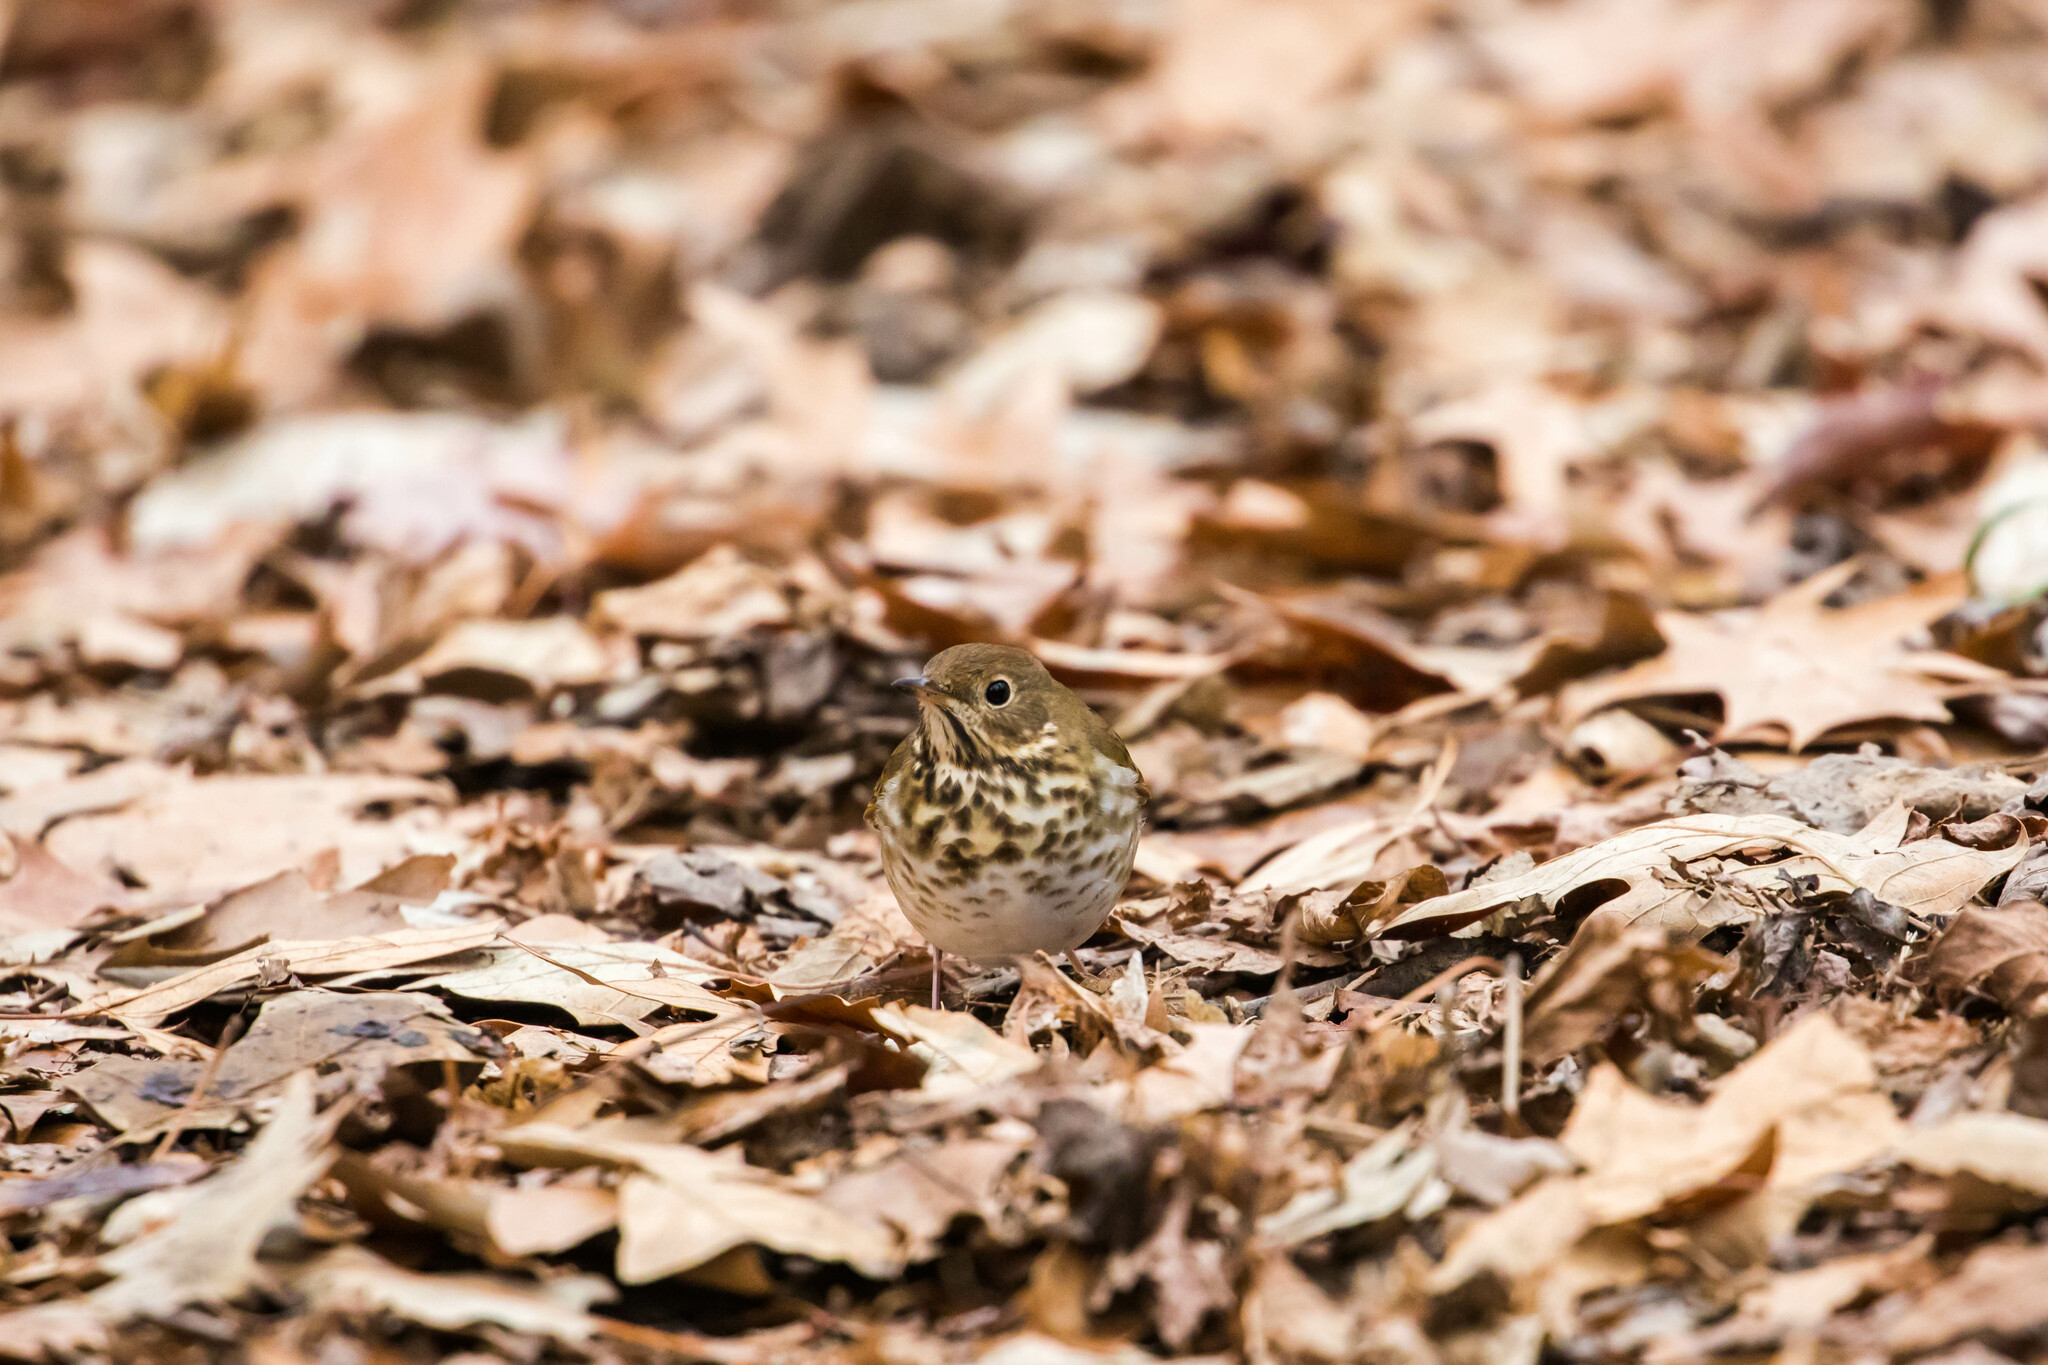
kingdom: Animalia
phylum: Chordata
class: Aves
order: Passeriformes
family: Turdidae
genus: Catharus
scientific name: Catharus guttatus
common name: Hermit thrush
